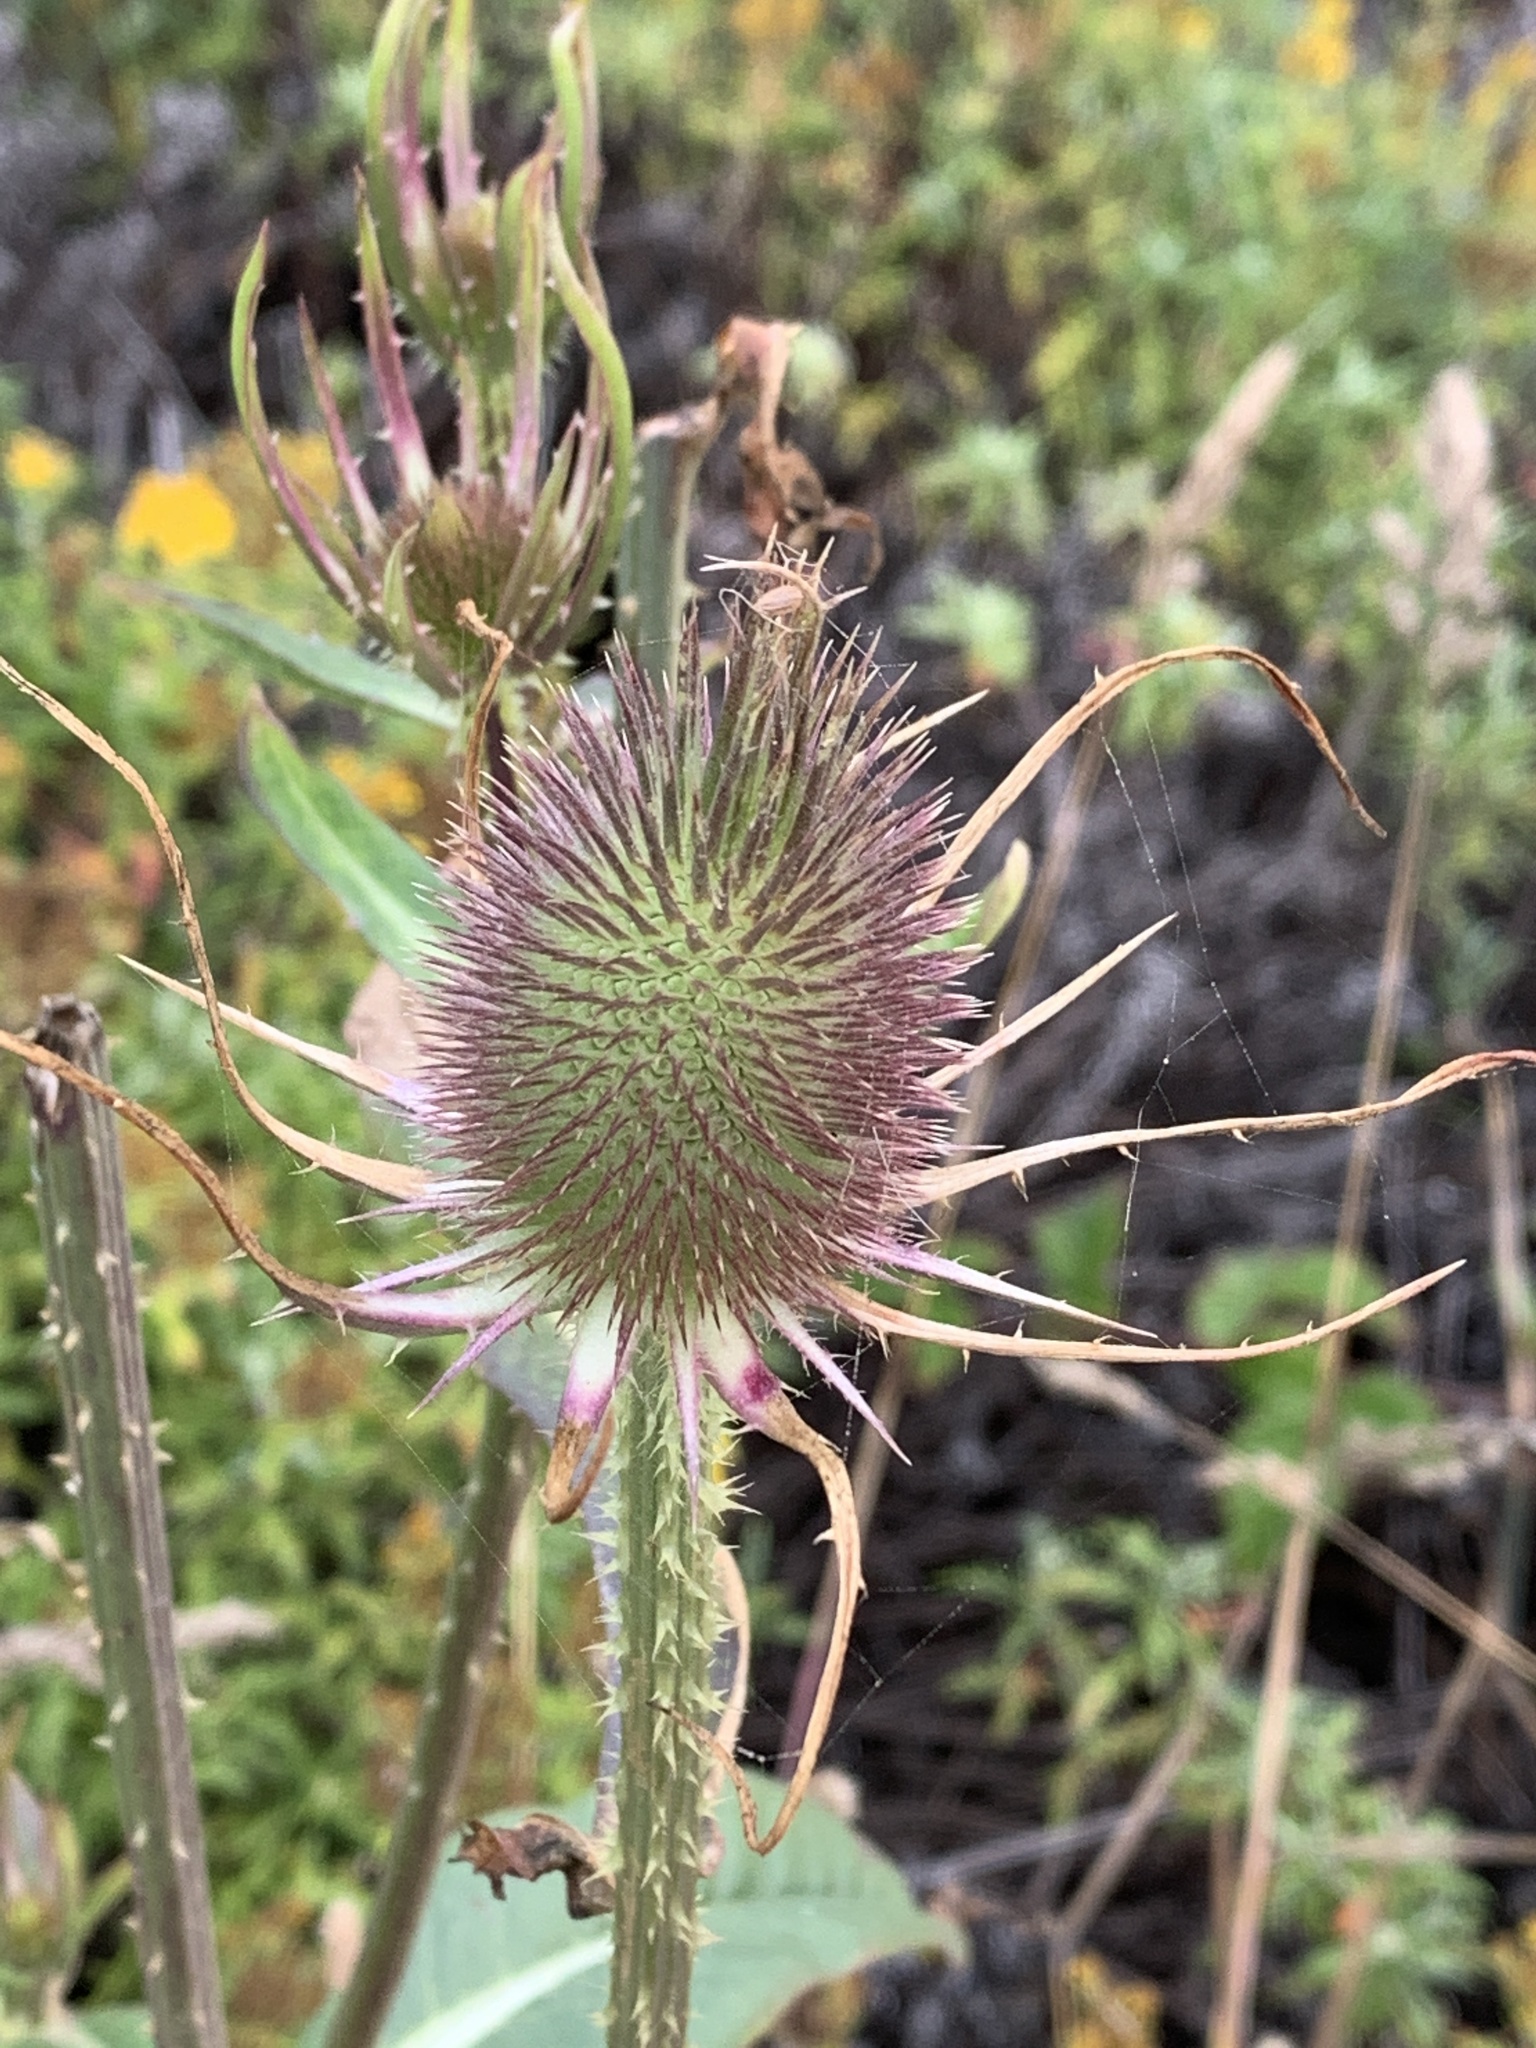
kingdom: Plantae
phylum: Tracheophyta
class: Magnoliopsida
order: Dipsacales
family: Caprifoliaceae
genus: Dipsacus
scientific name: Dipsacus fullonum
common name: Teasel
